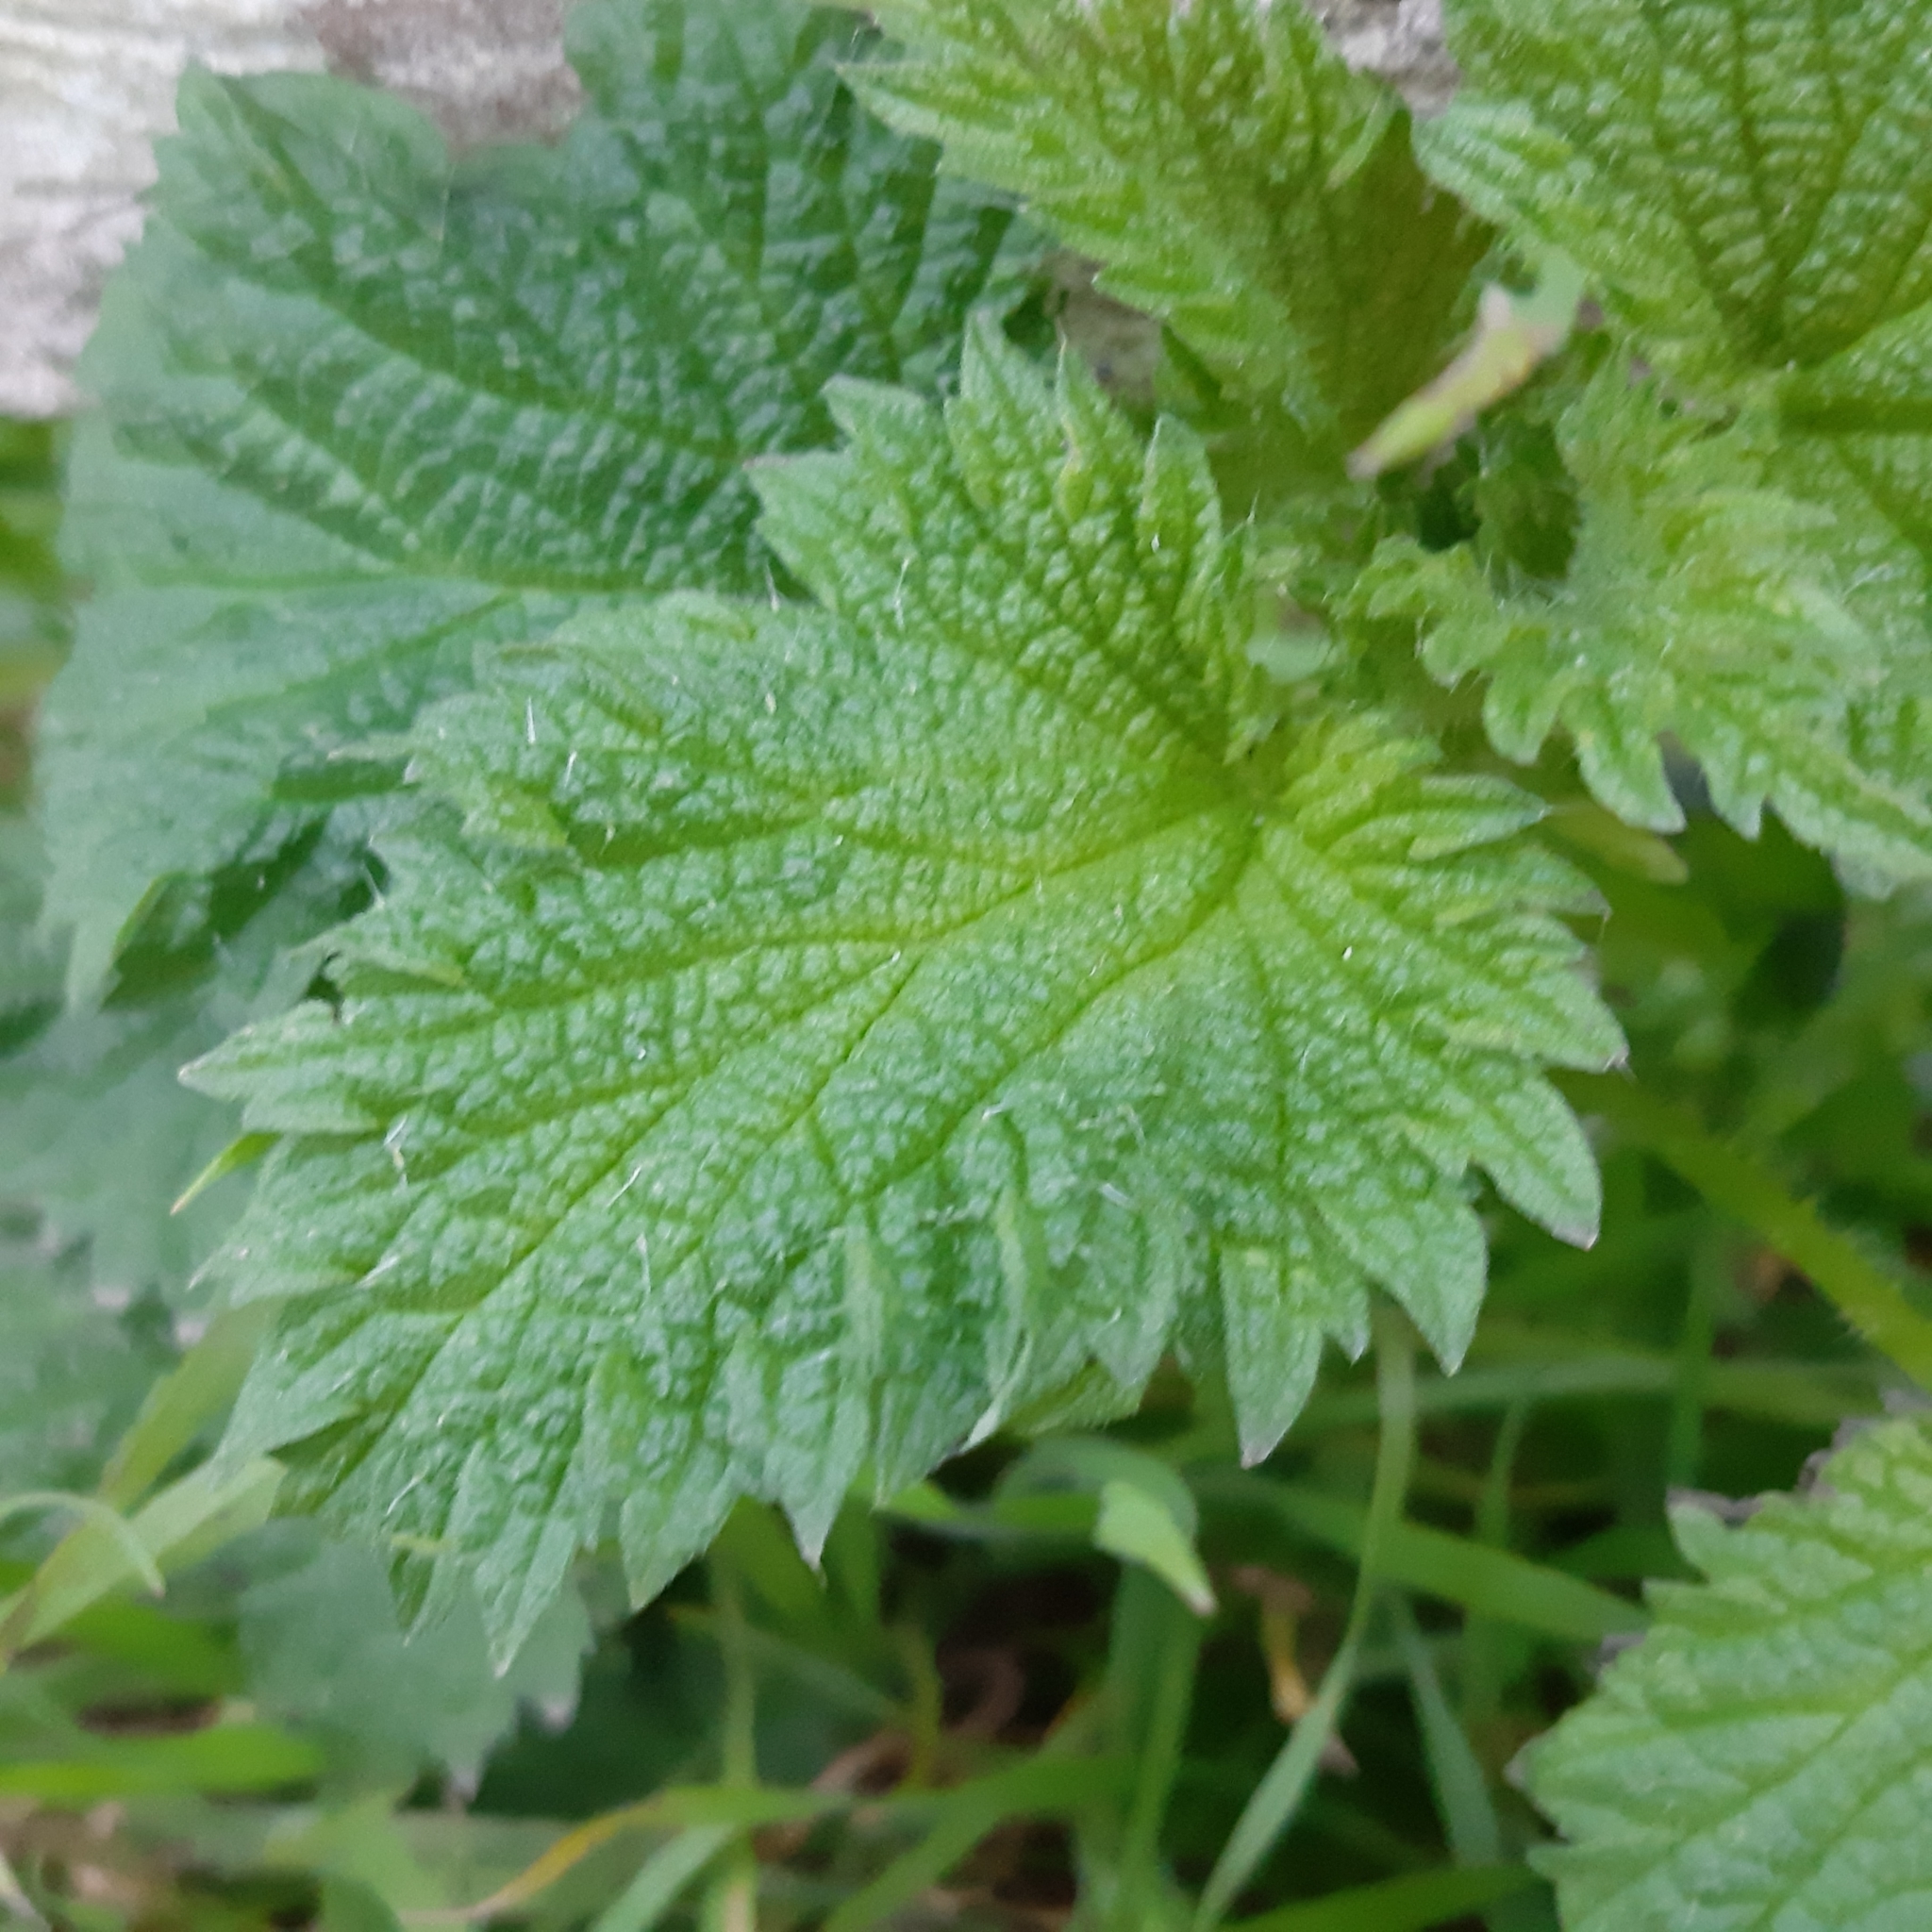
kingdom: Plantae
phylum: Tracheophyta
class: Magnoliopsida
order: Rosales
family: Urticaceae
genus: Urtica
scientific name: Urtica dioica
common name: Common nettle
